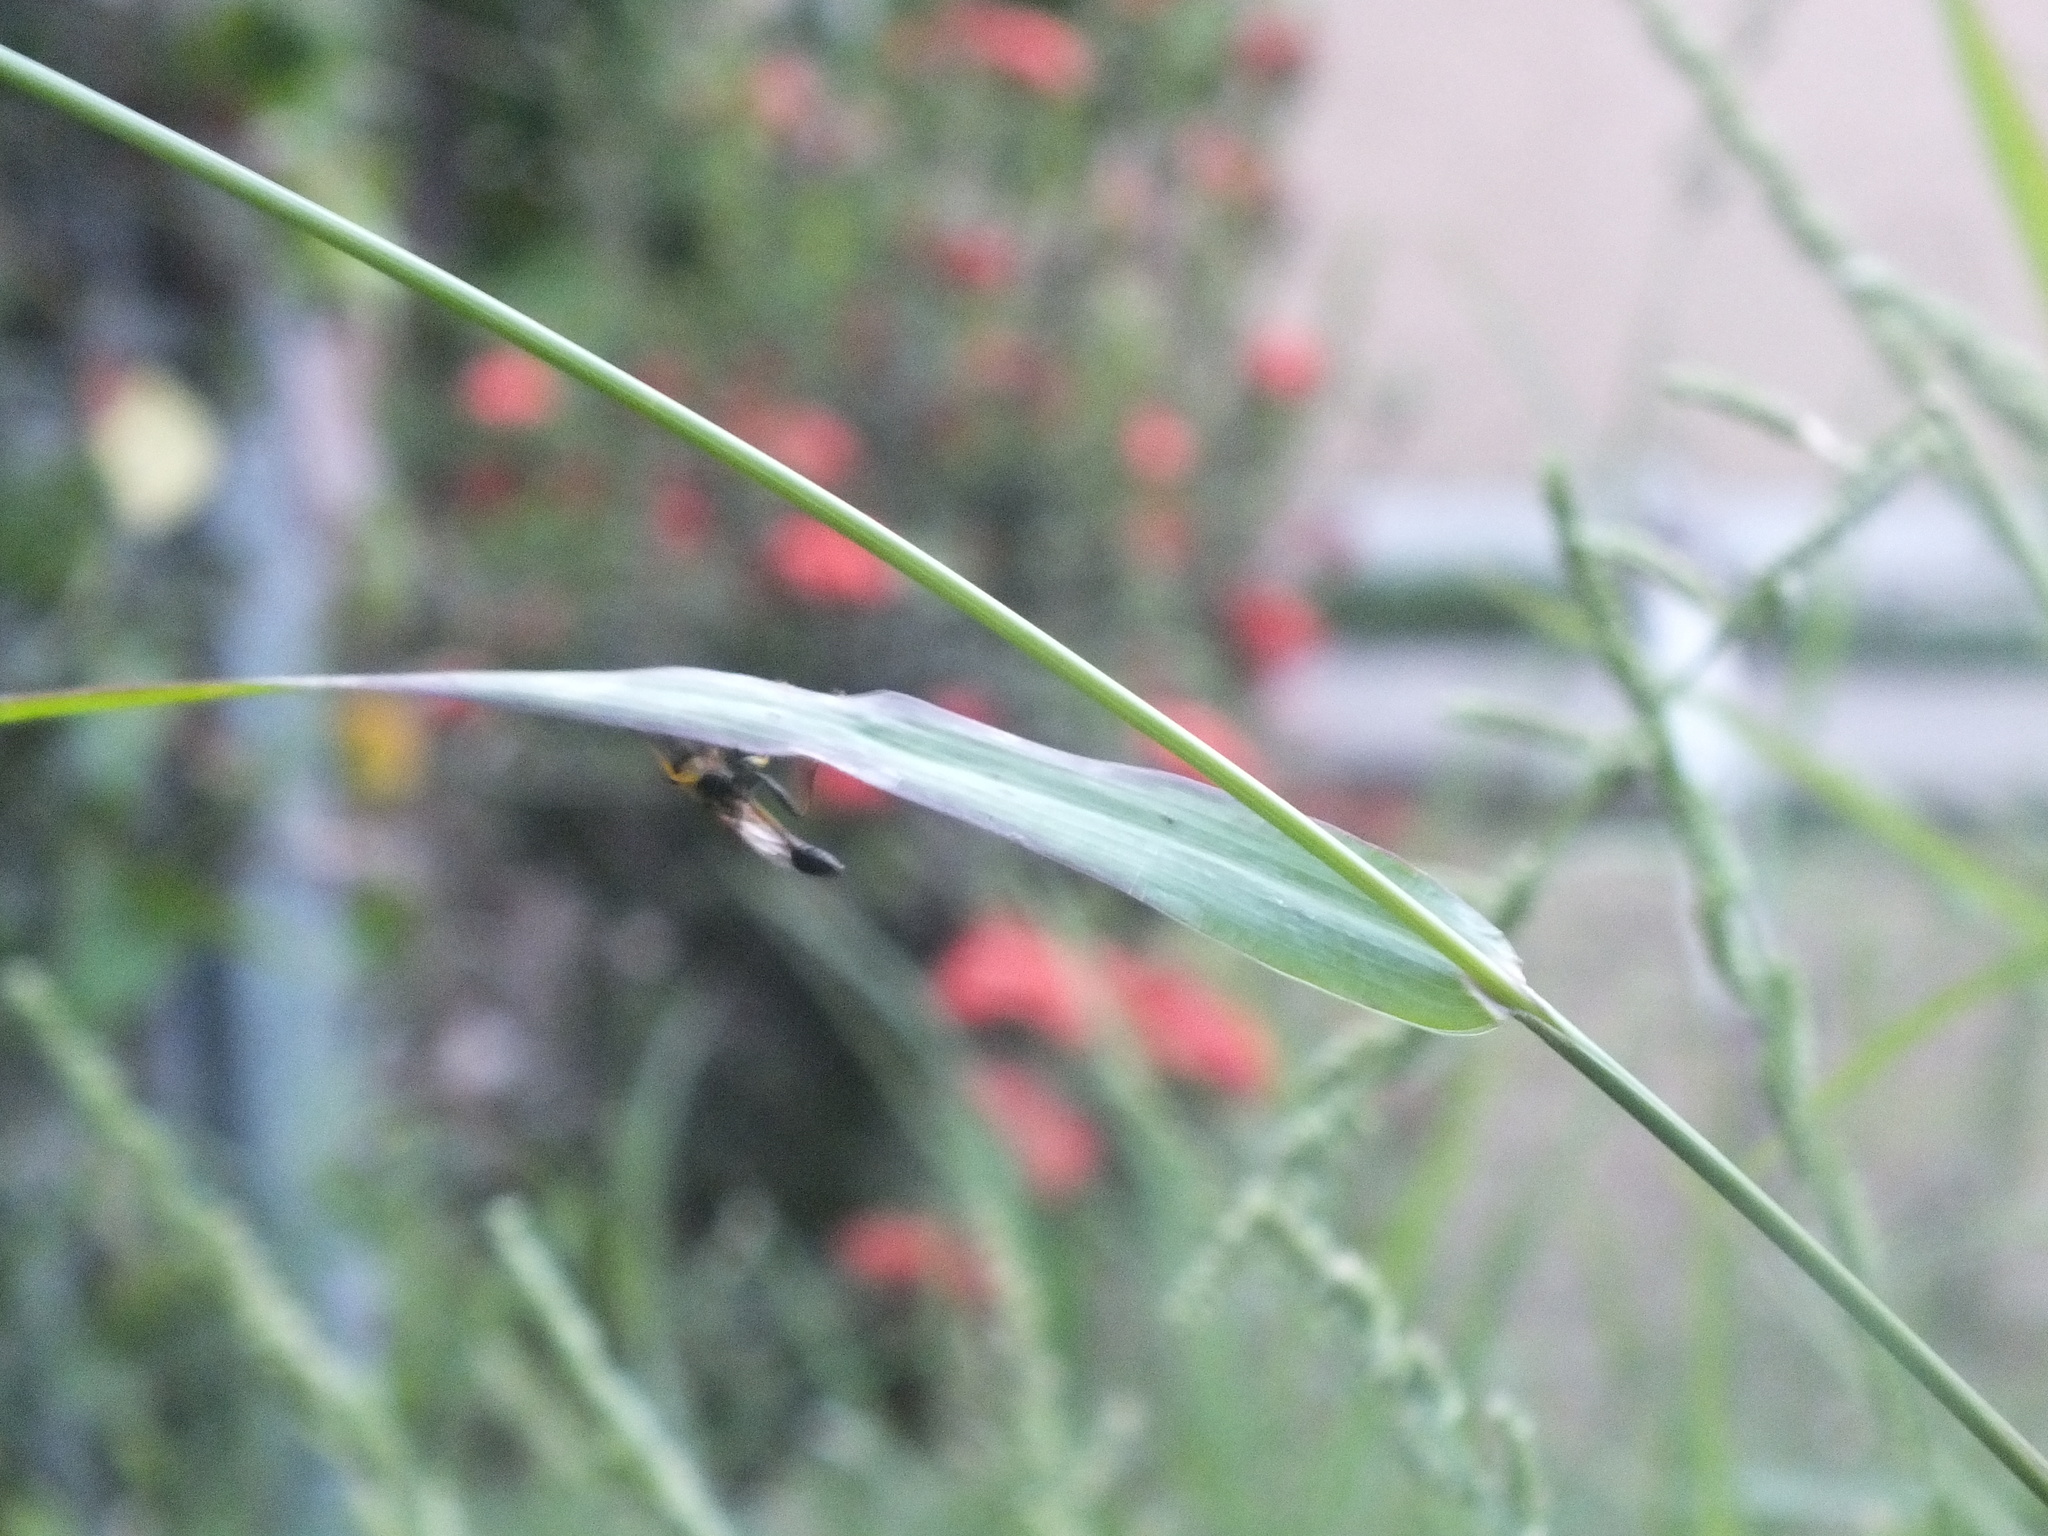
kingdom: Animalia
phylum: Arthropoda
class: Insecta
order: Hymenoptera
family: Sphecidae
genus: Sceliphron
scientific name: Sceliphron assimile
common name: Clayman's mud dauber
